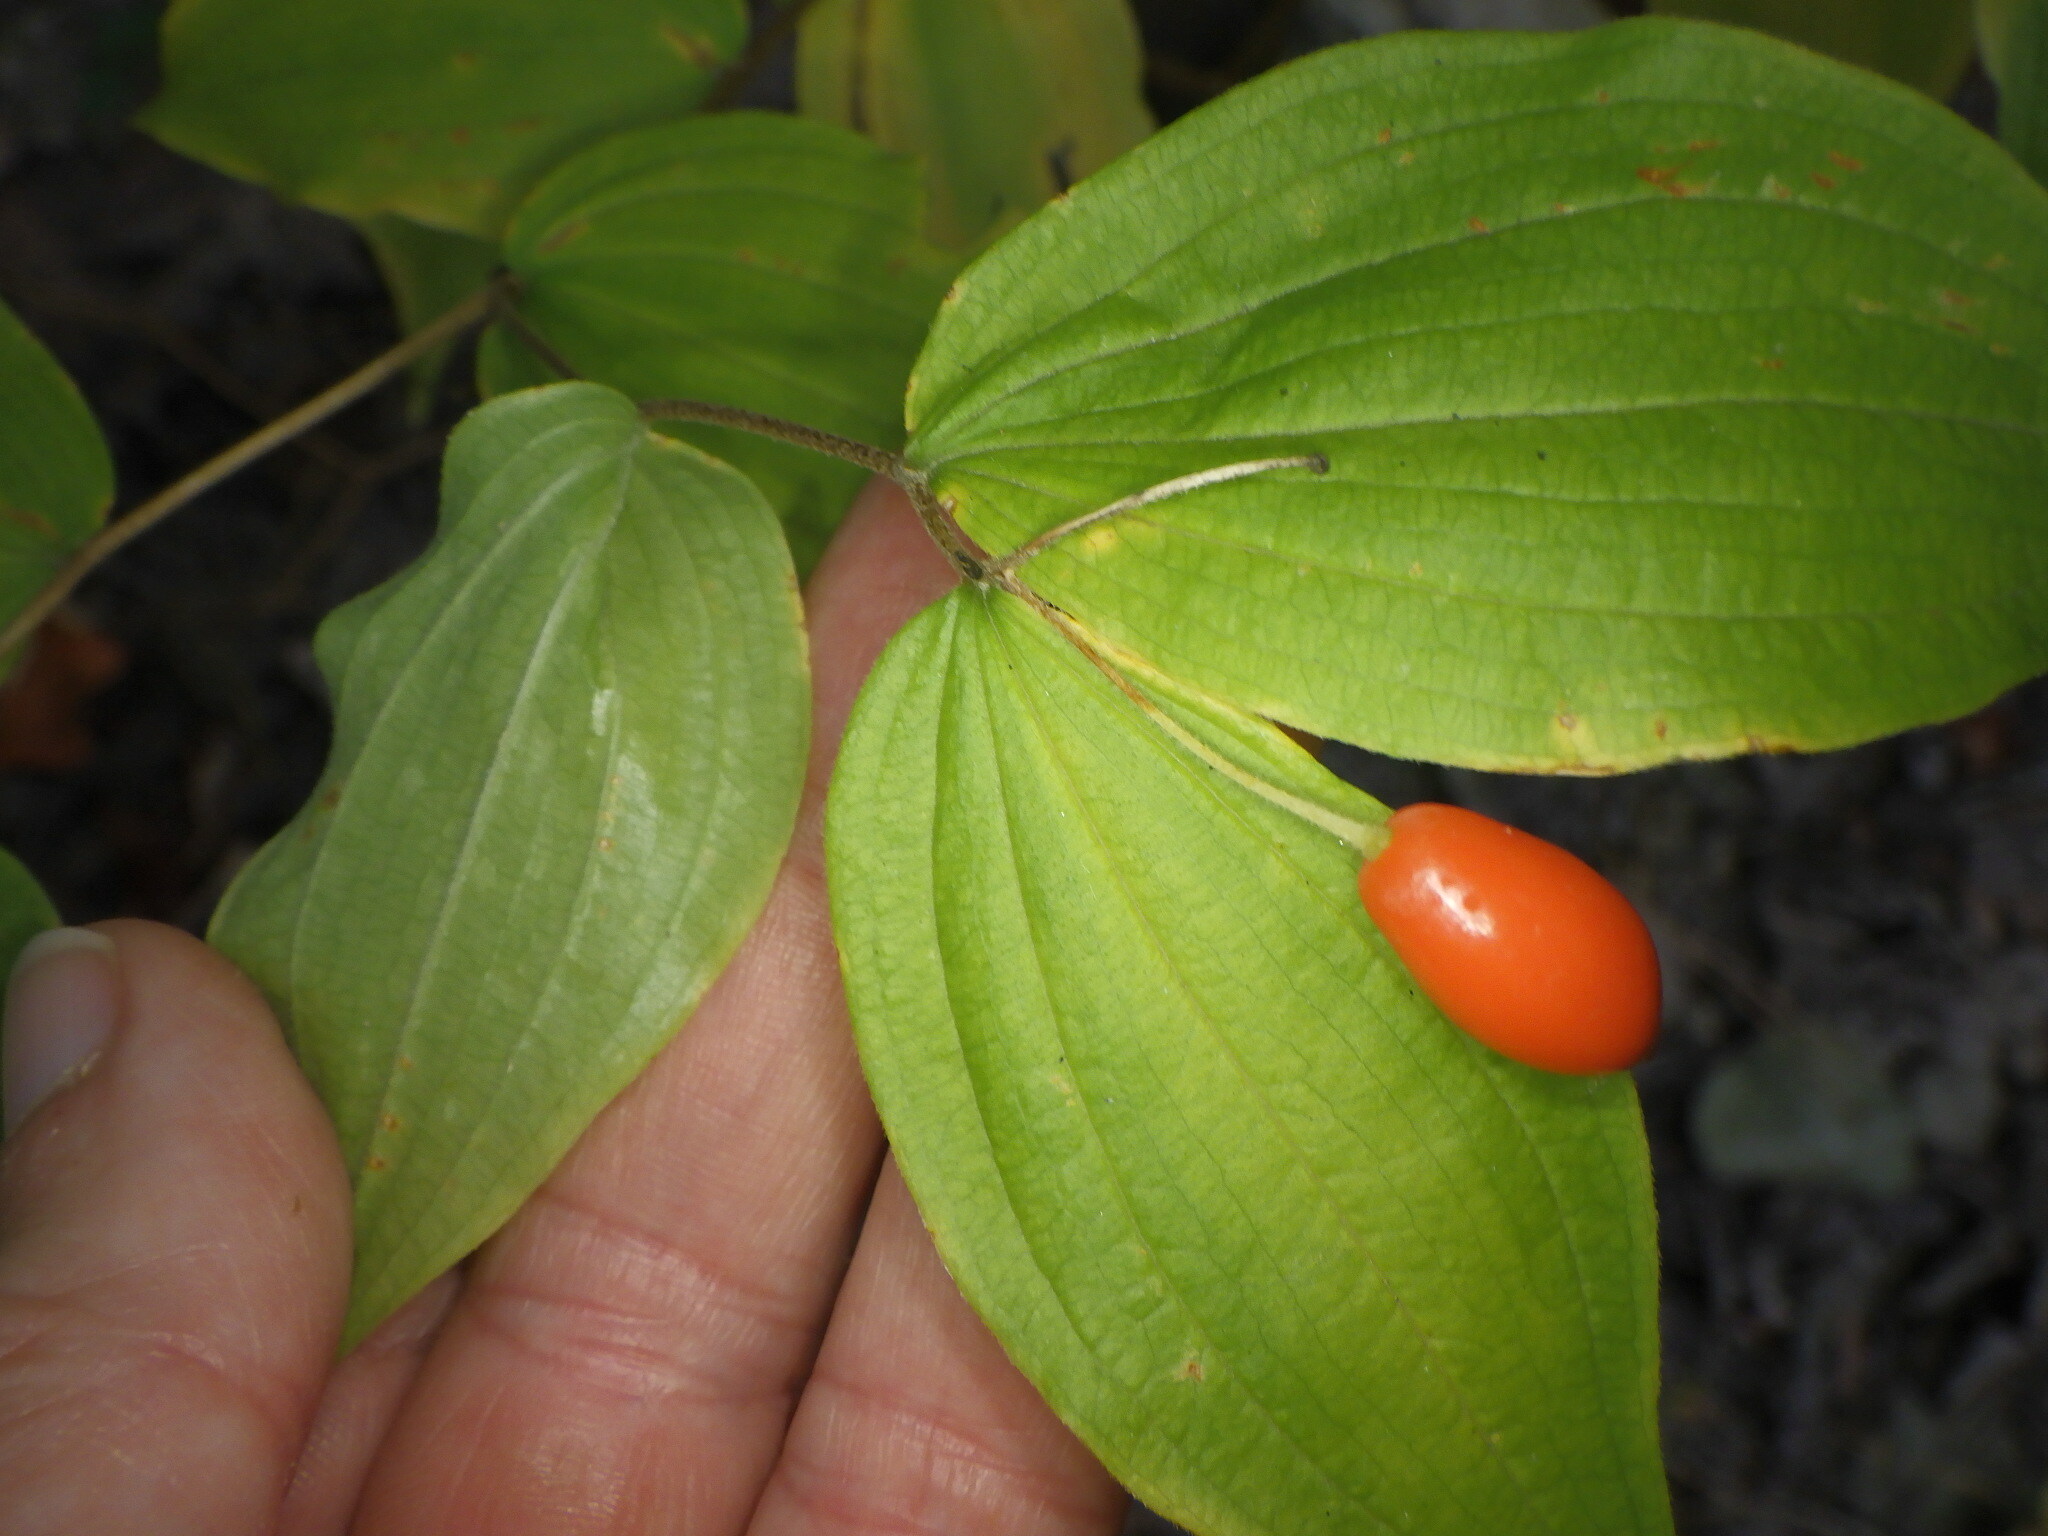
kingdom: Plantae
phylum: Tracheophyta
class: Liliopsida
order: Liliales
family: Liliaceae
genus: Prosartes
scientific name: Prosartes lanuginosa
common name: Hairy mandarin
